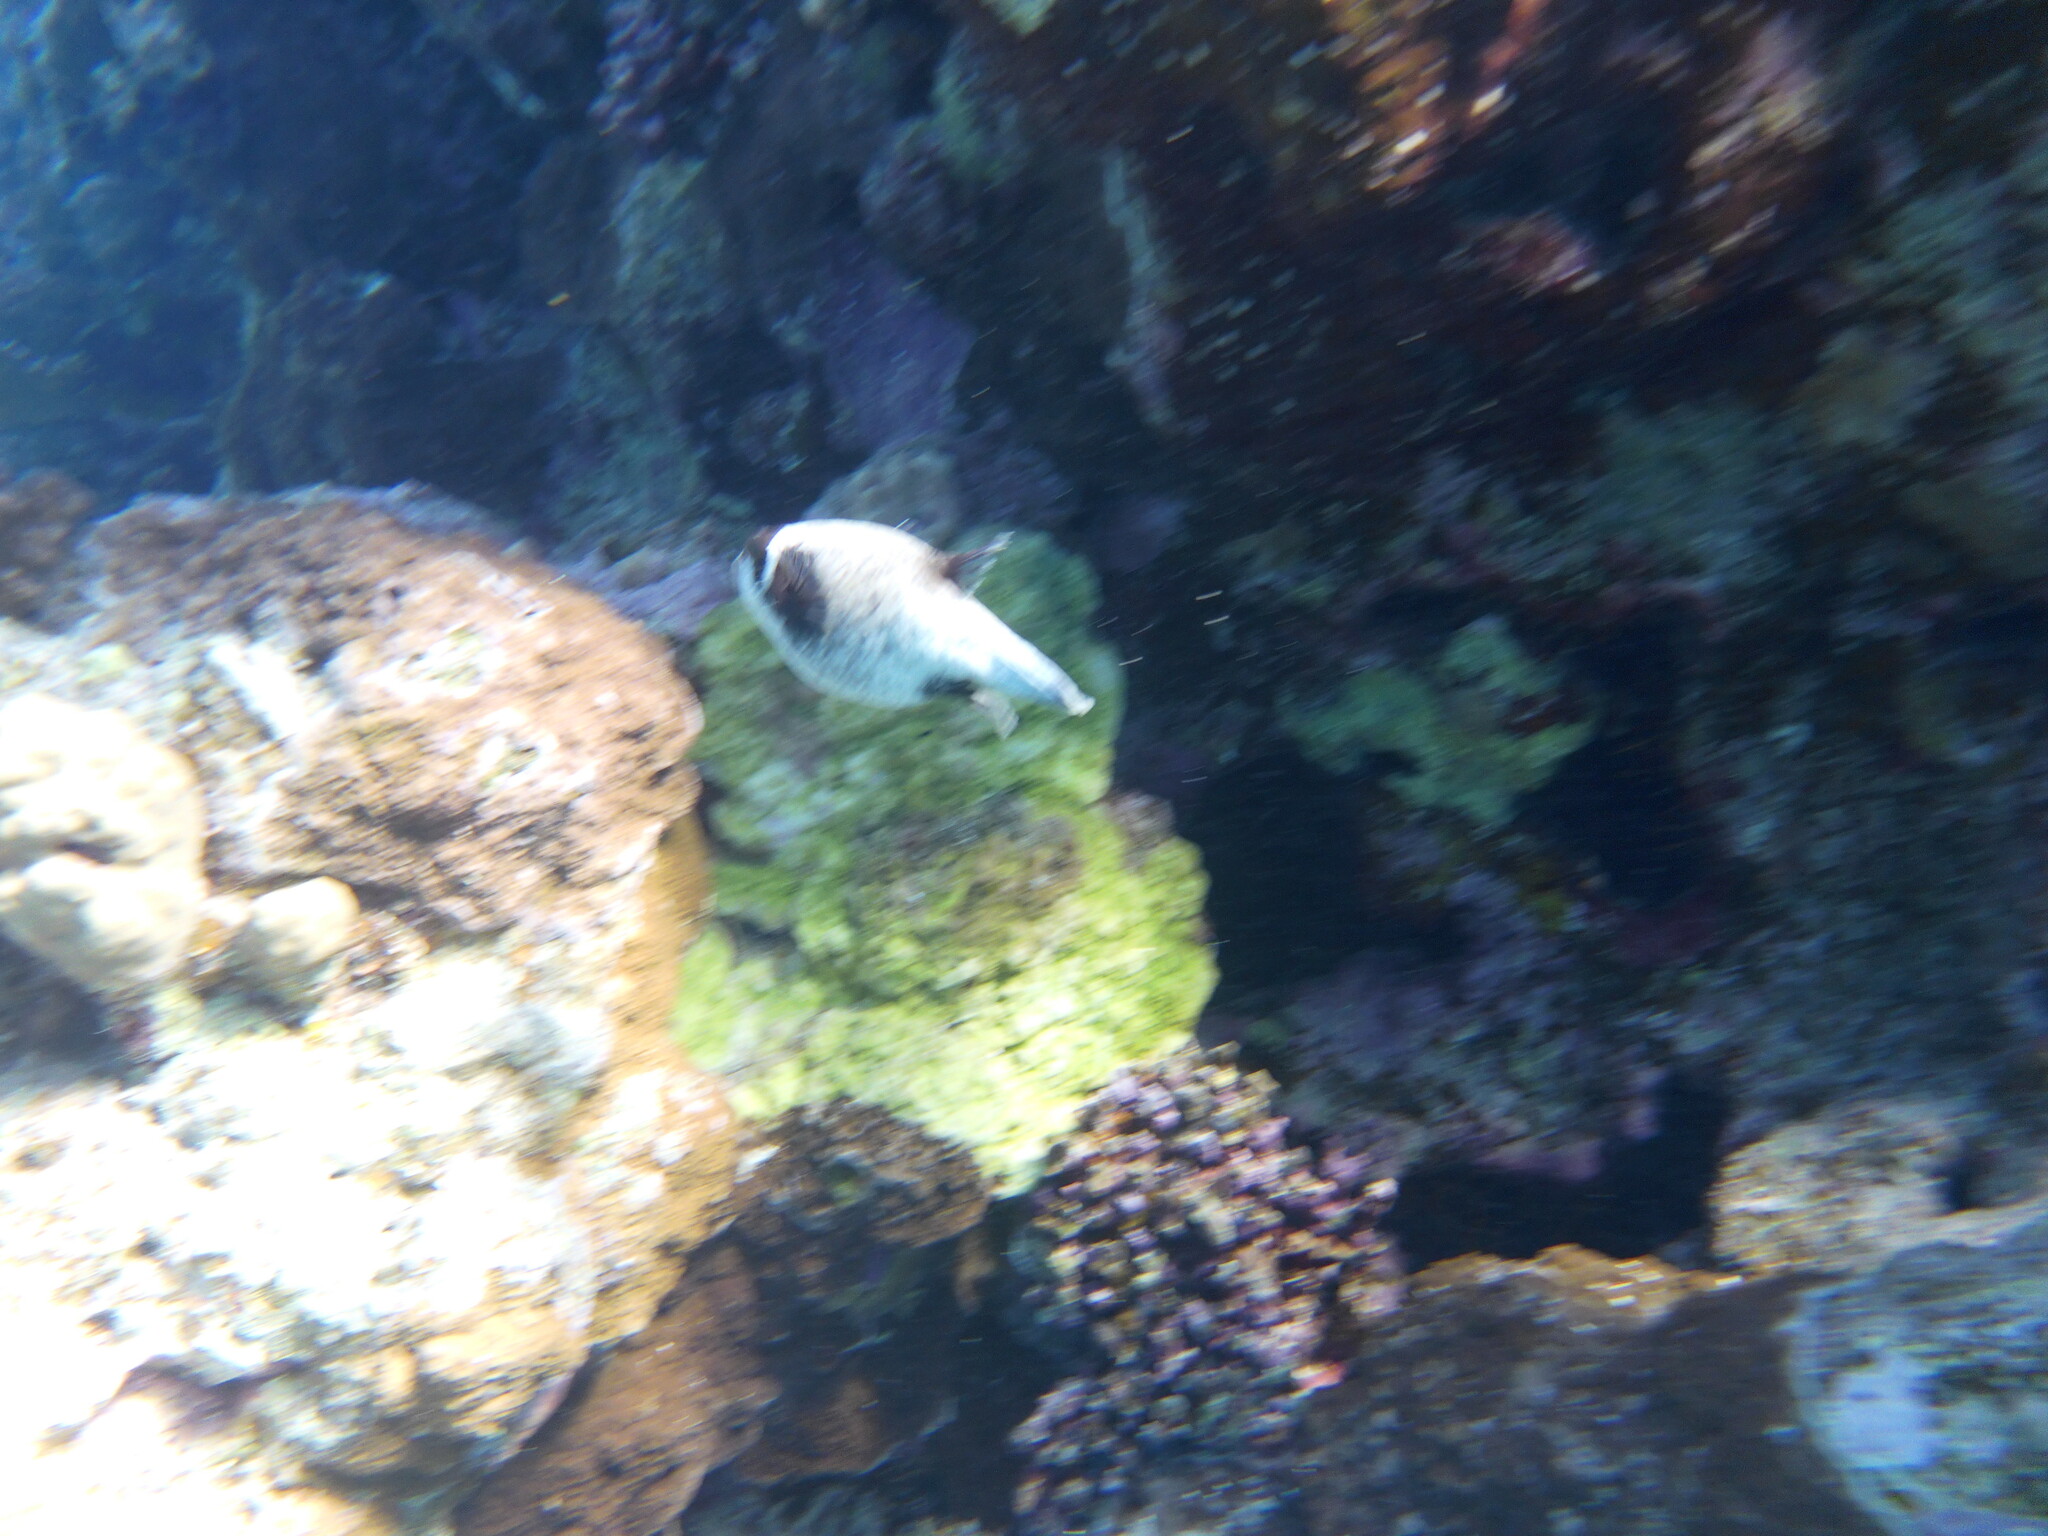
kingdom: Animalia
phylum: Chordata
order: Tetraodontiformes
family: Tetraodontidae
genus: Arothron
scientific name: Arothron diadematus
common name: Masked puffer
